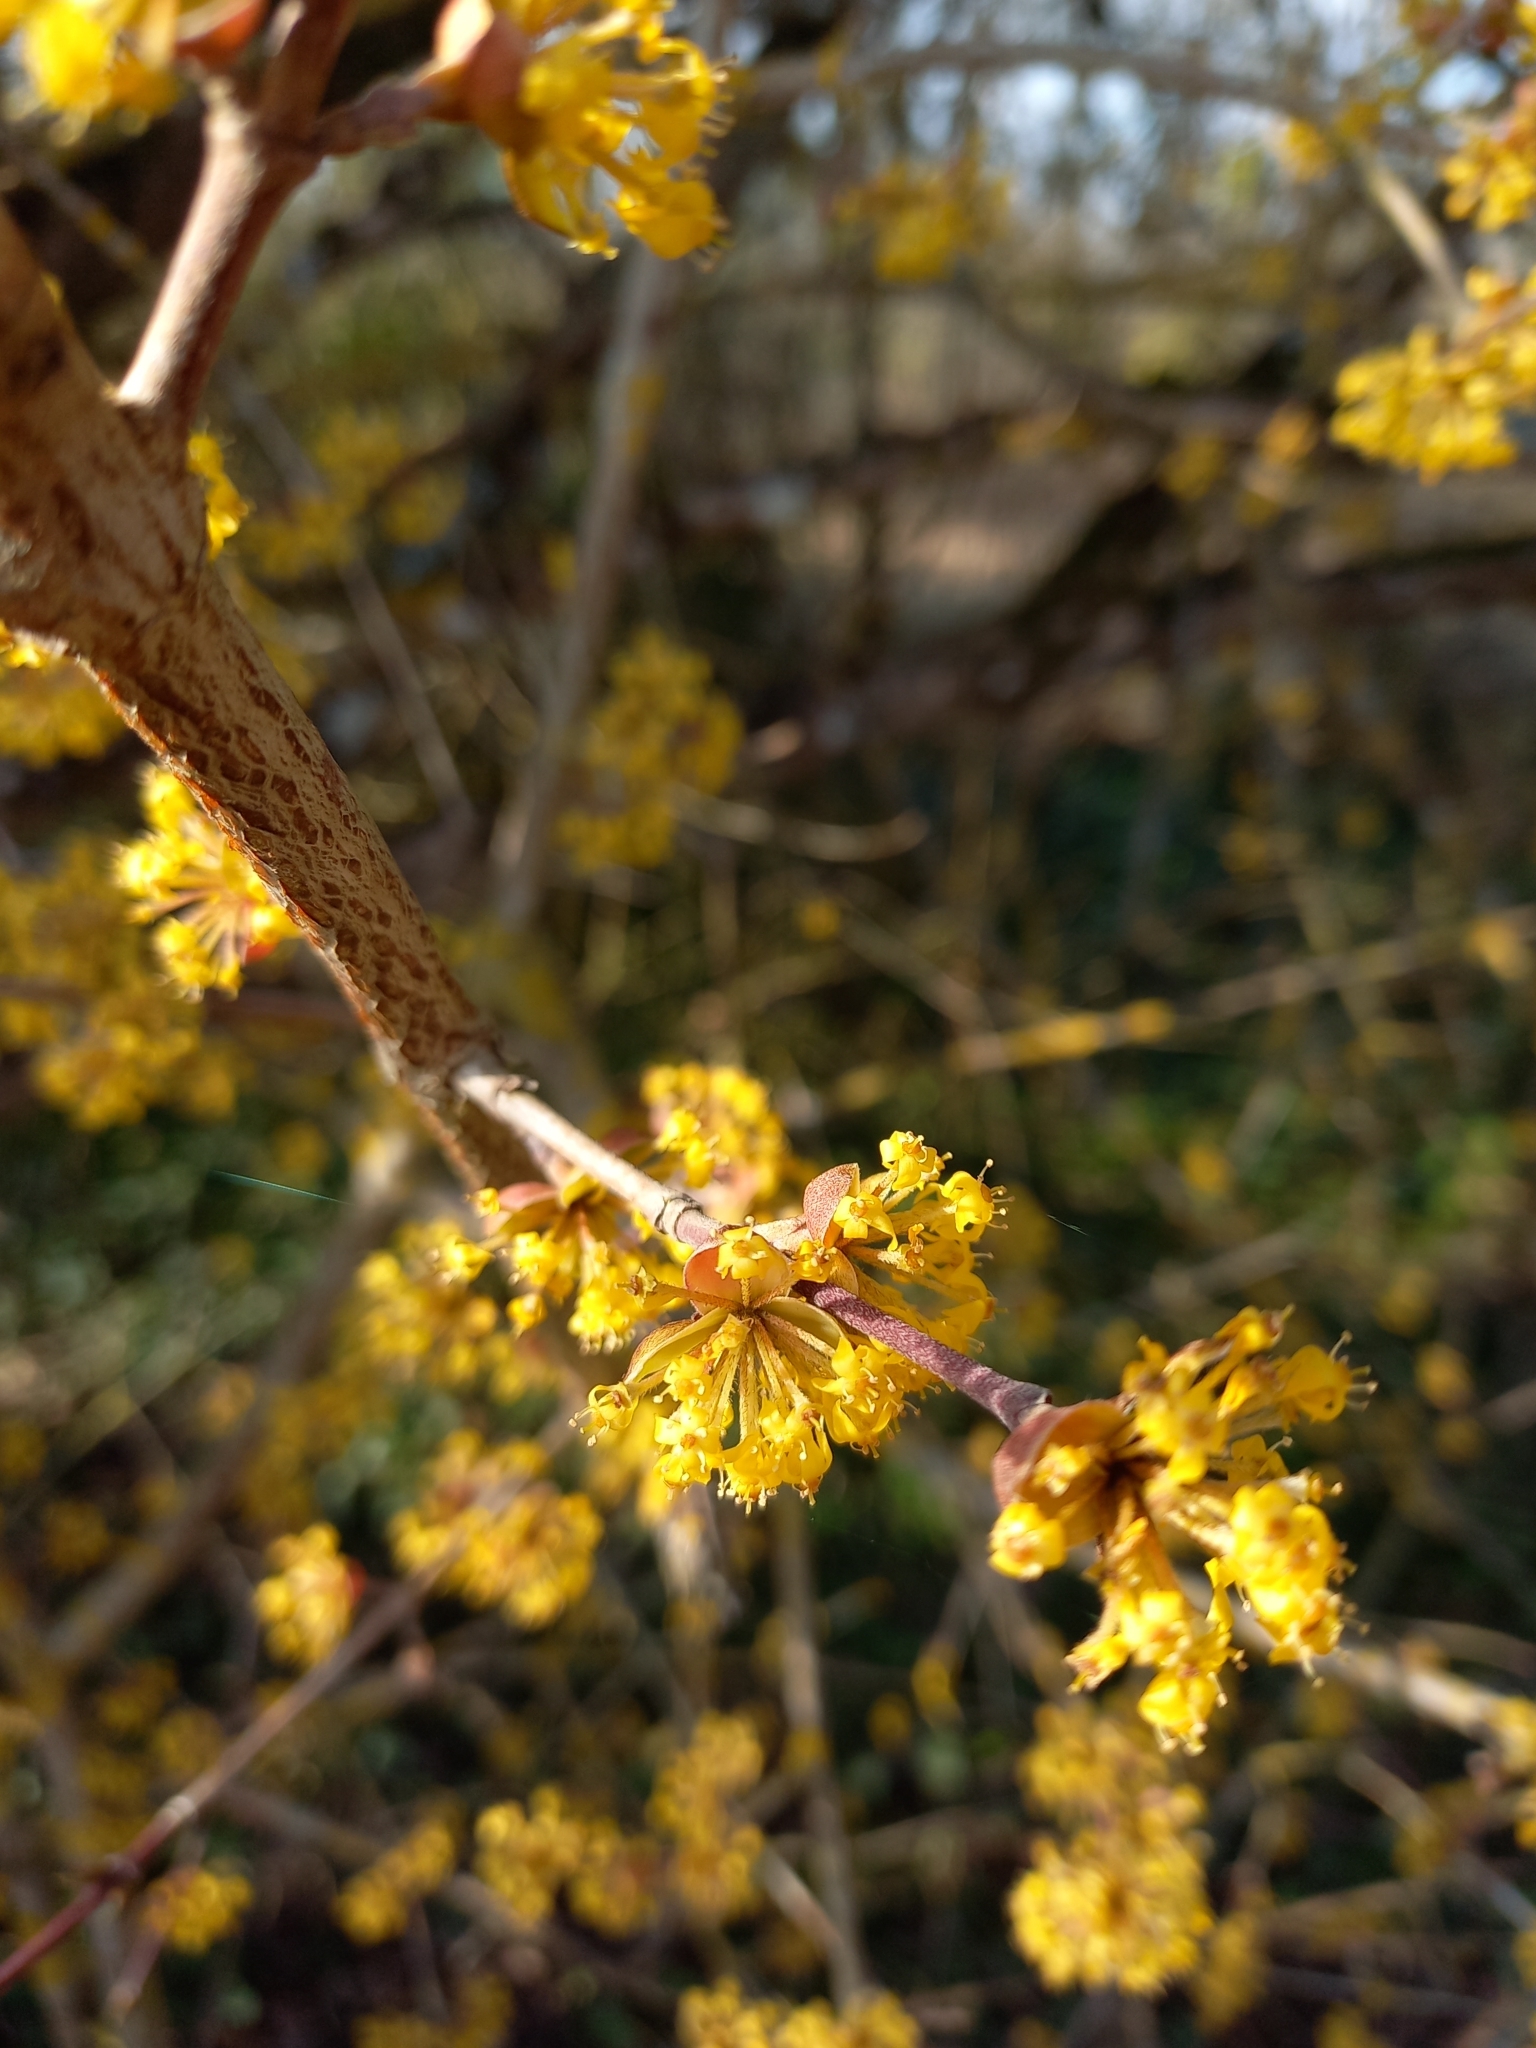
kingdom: Plantae
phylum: Tracheophyta
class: Magnoliopsida
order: Cornales
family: Cornaceae
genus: Cornus
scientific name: Cornus mas
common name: Cornelian-cherry
